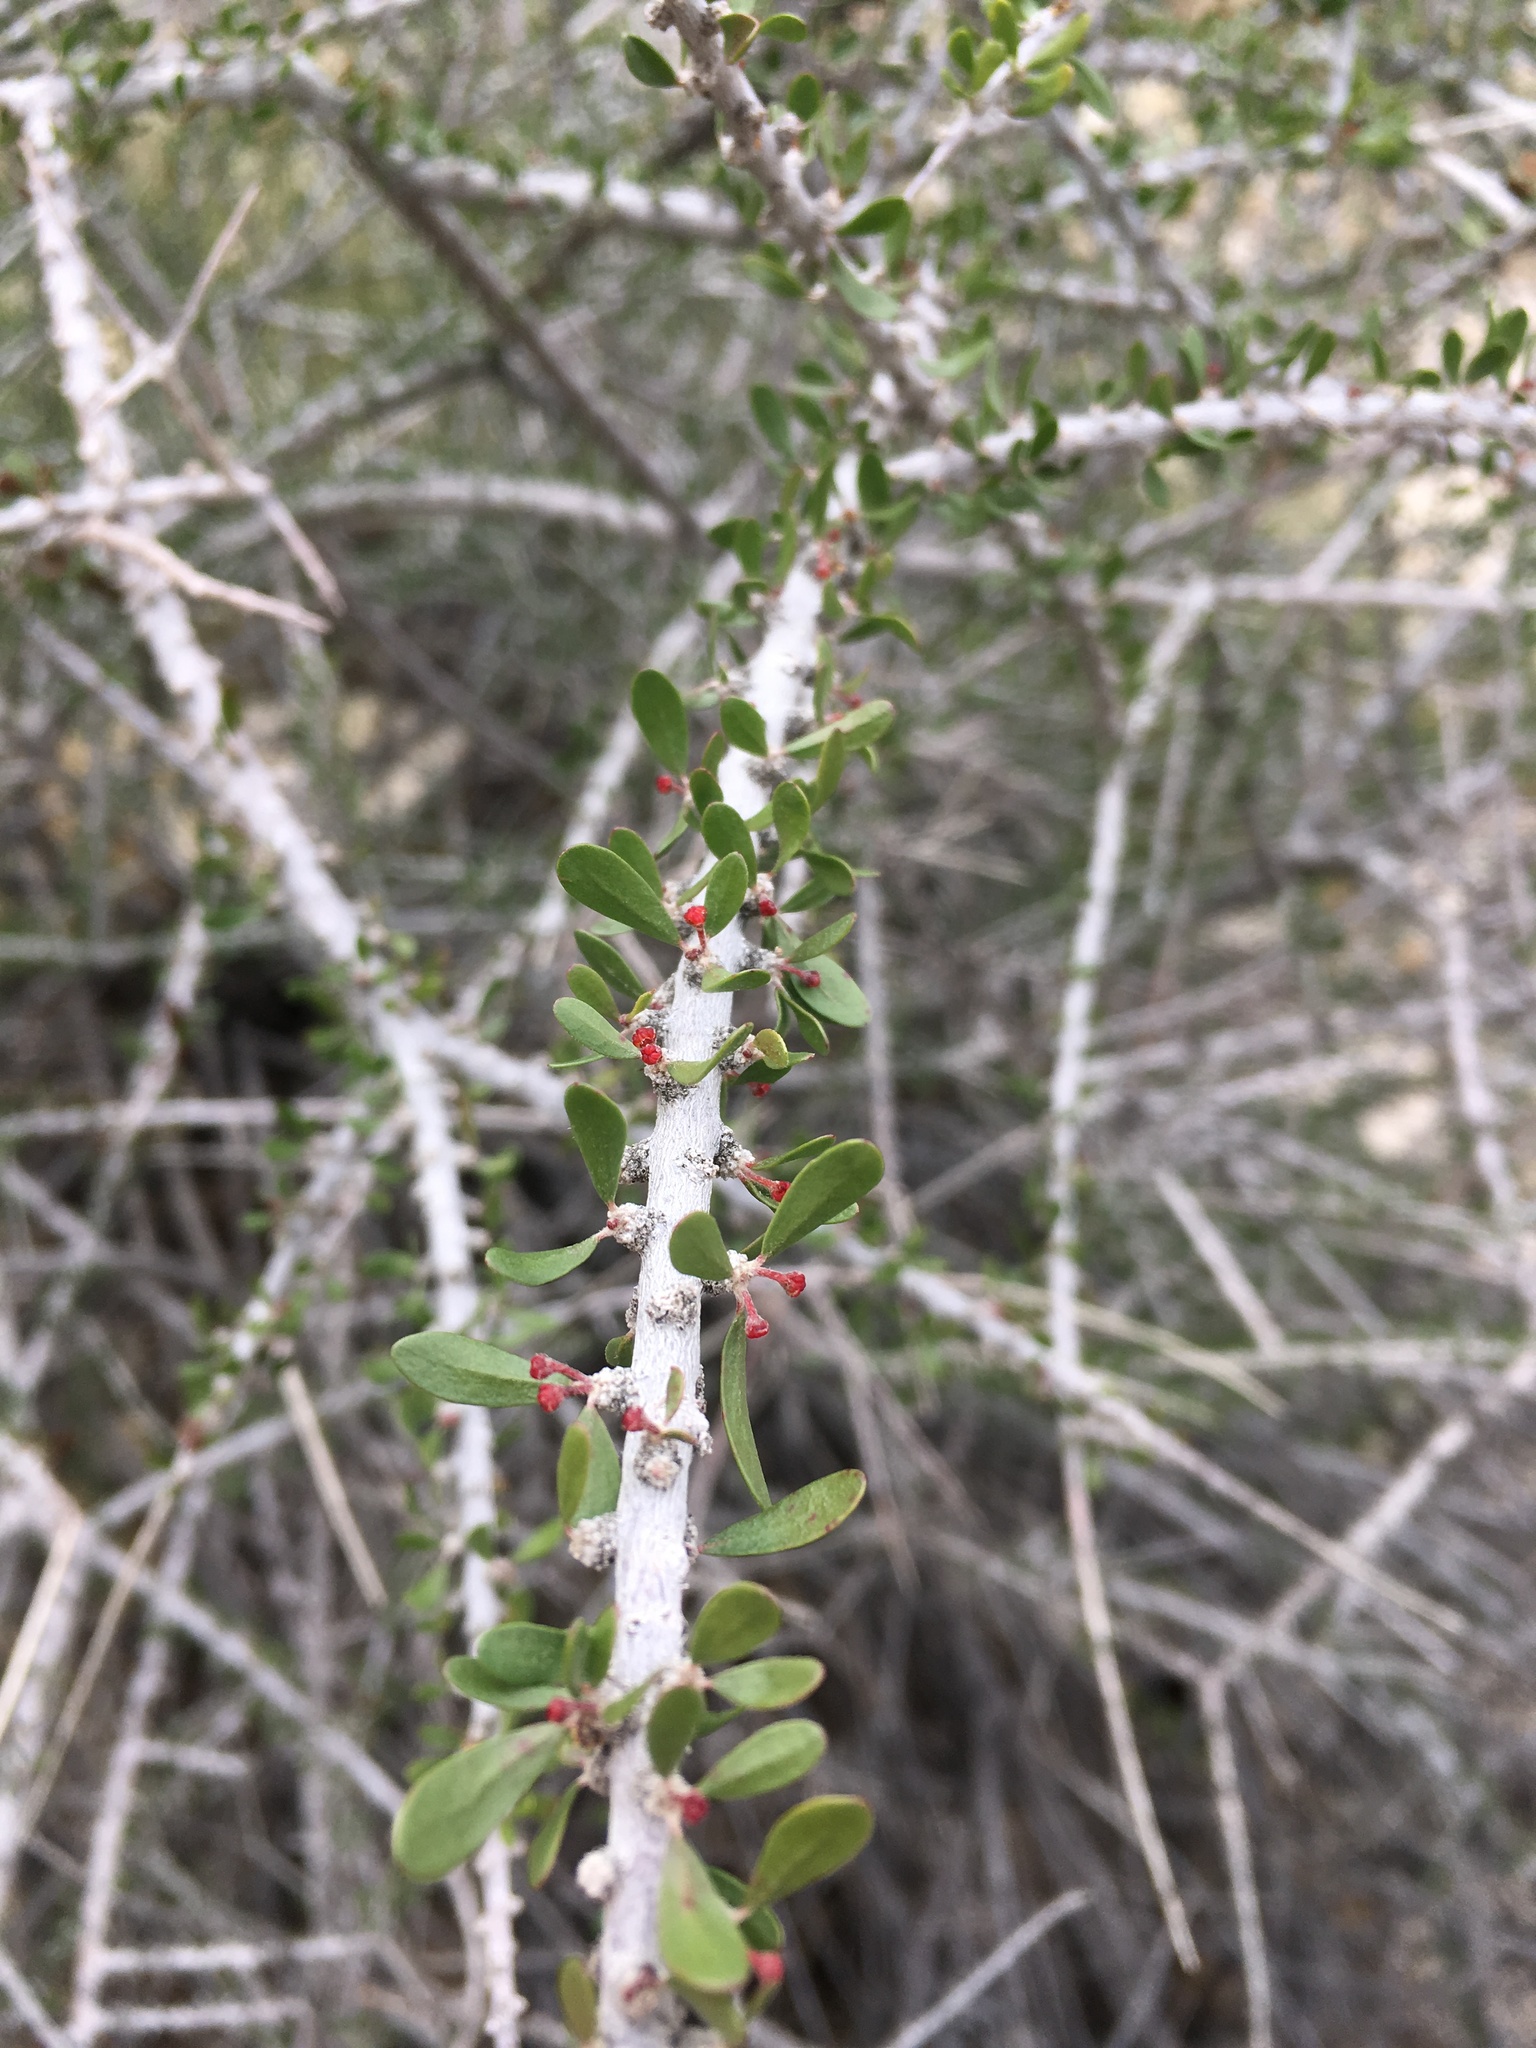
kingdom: Plantae
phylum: Tracheophyta
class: Magnoliopsida
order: Malpighiales
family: Picrodendraceae
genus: Tetracoccus
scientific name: Tetracoccus hallii
